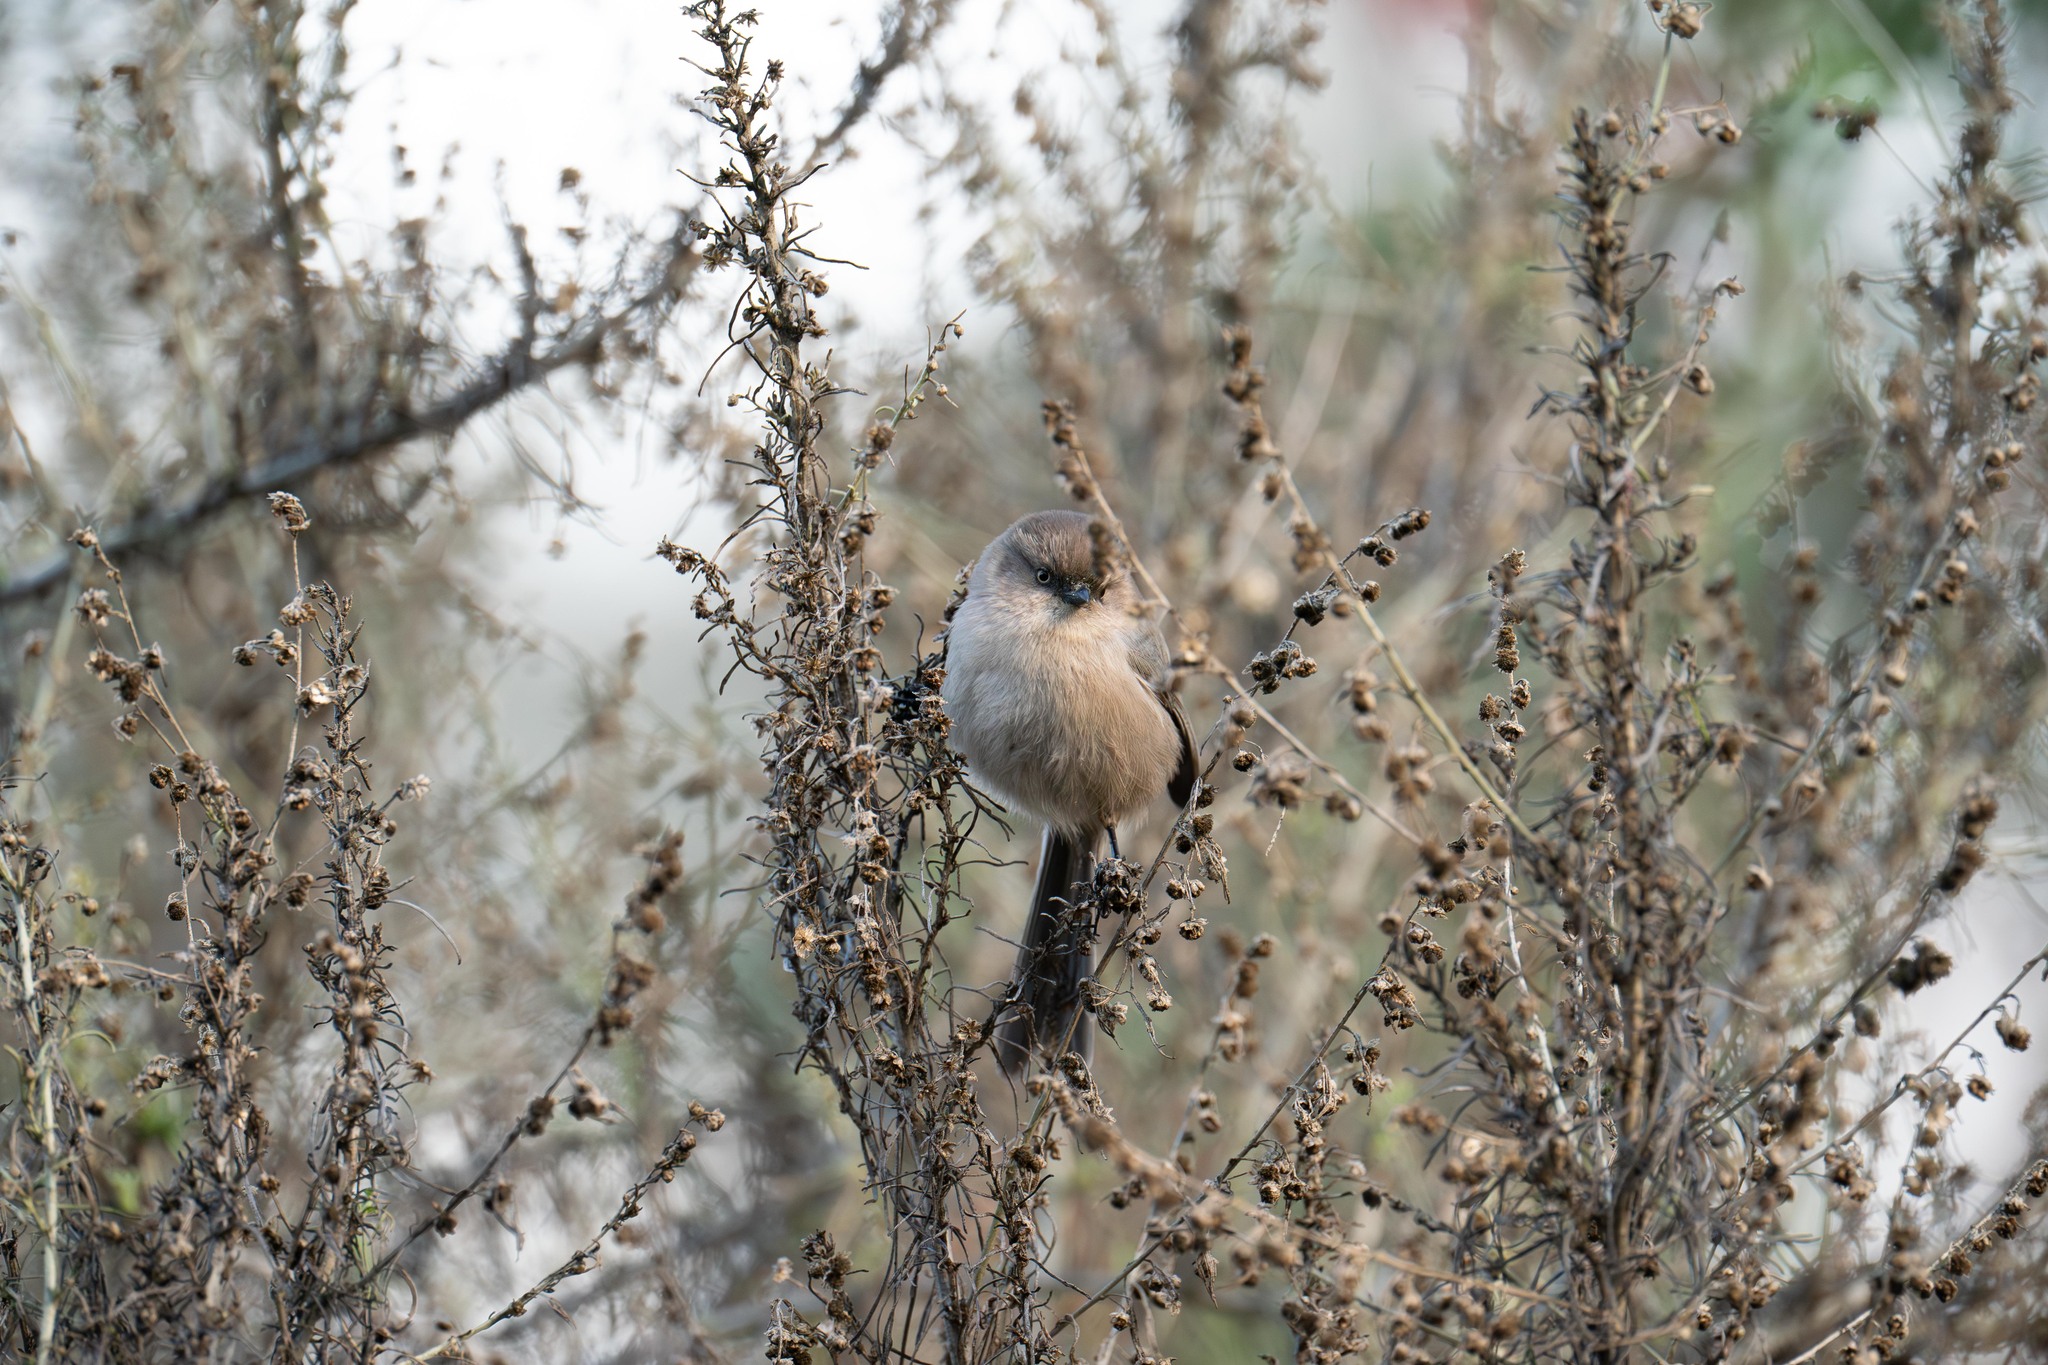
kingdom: Animalia
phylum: Chordata
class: Aves
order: Passeriformes
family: Aegithalidae
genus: Psaltriparus
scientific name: Psaltriparus minimus
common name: American bushtit
